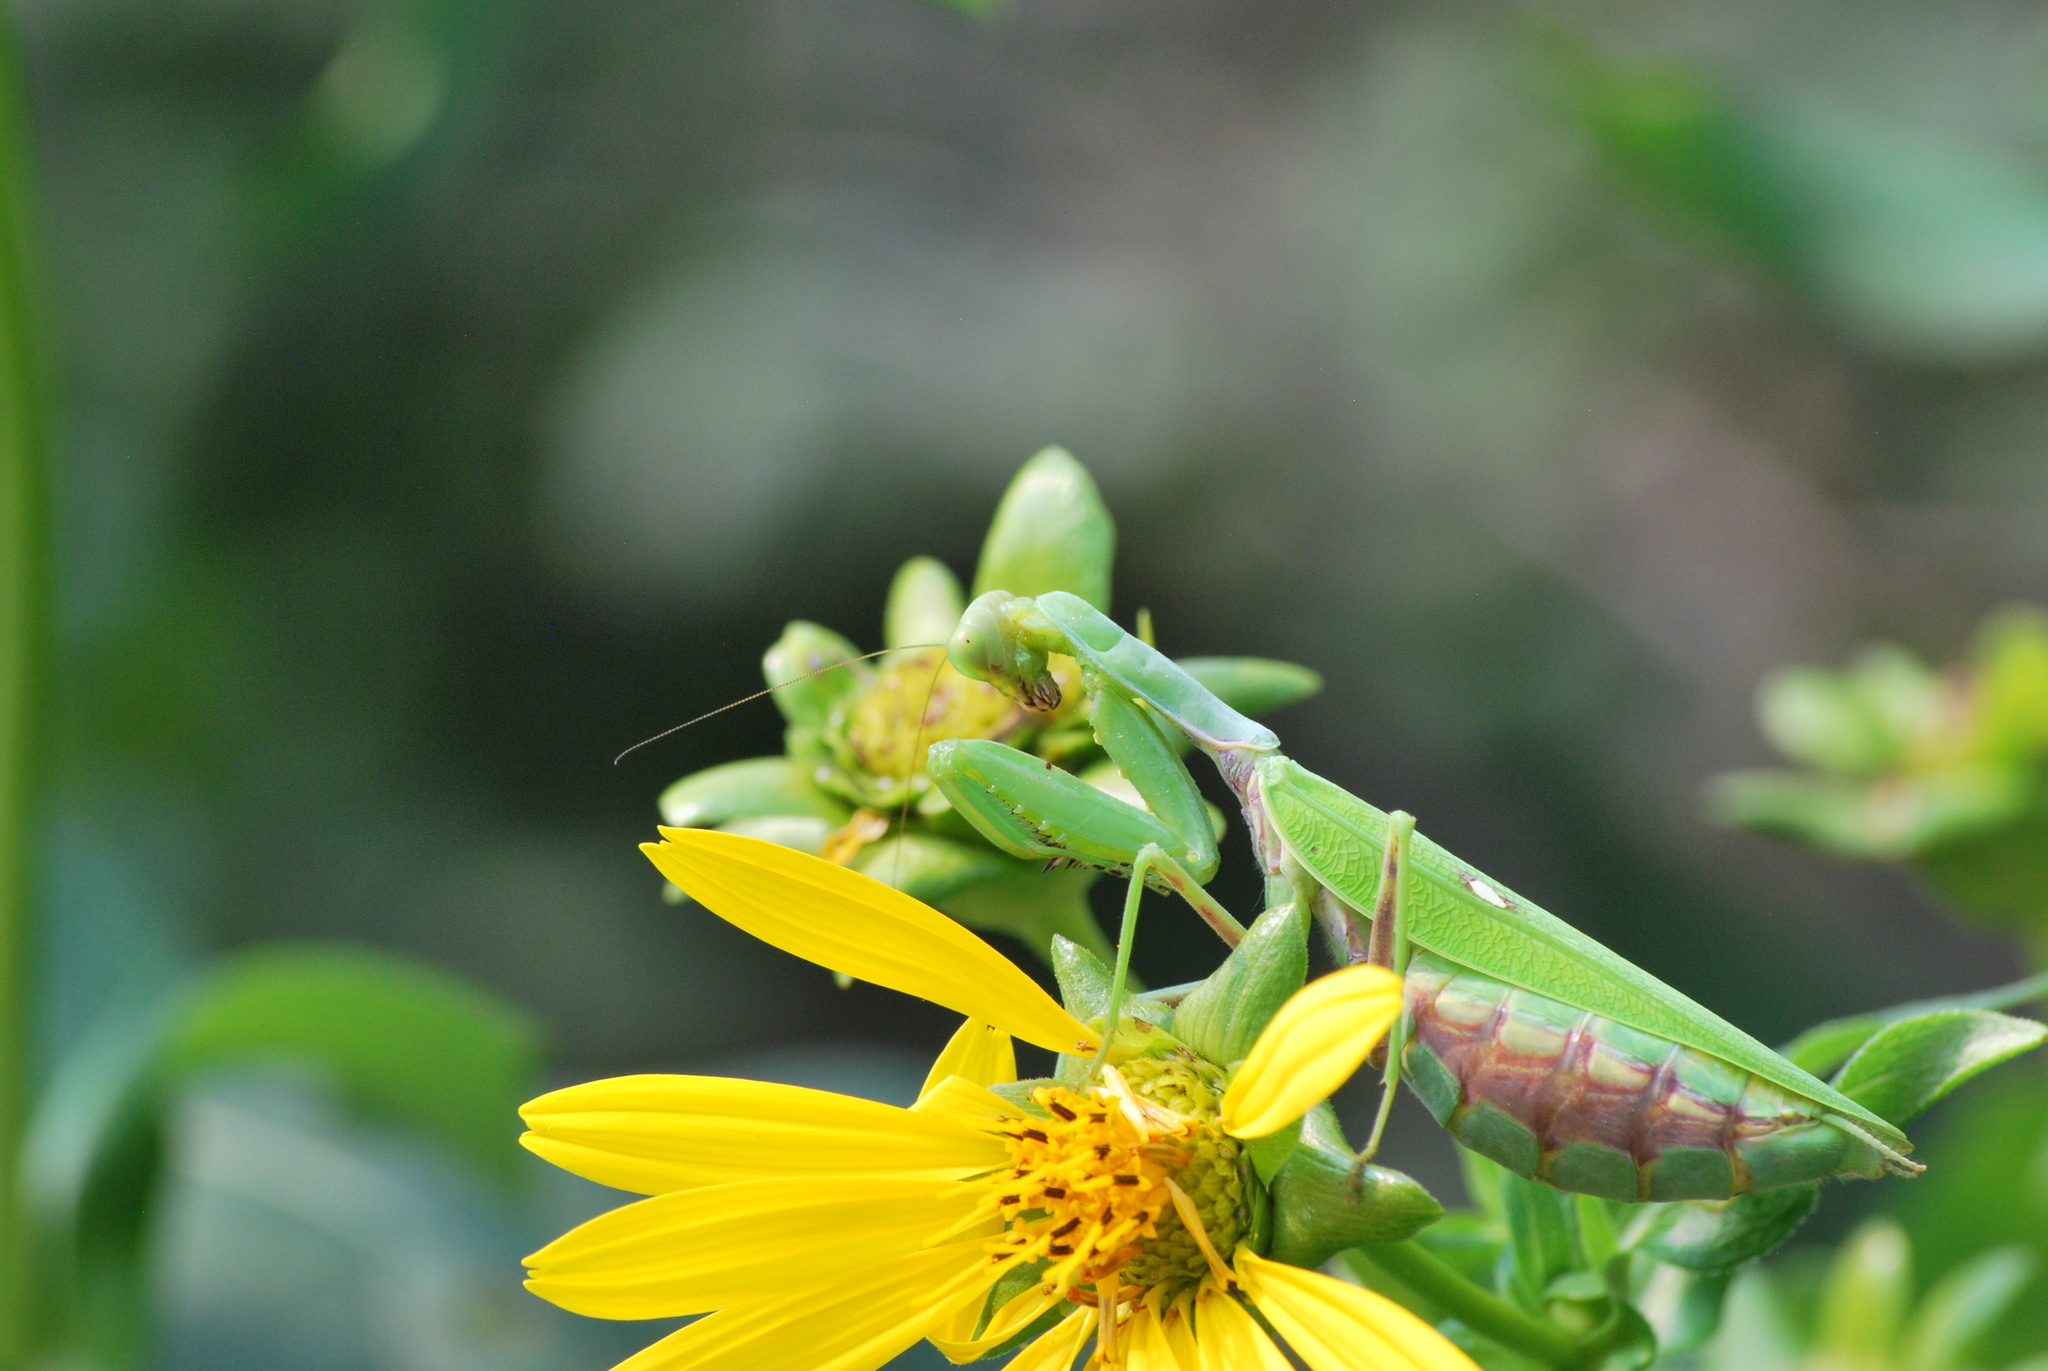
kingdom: Animalia
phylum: Arthropoda
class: Insecta
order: Mantodea
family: Mantidae
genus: Hierodula
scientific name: Hierodula patellifera
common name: Asian mantis
